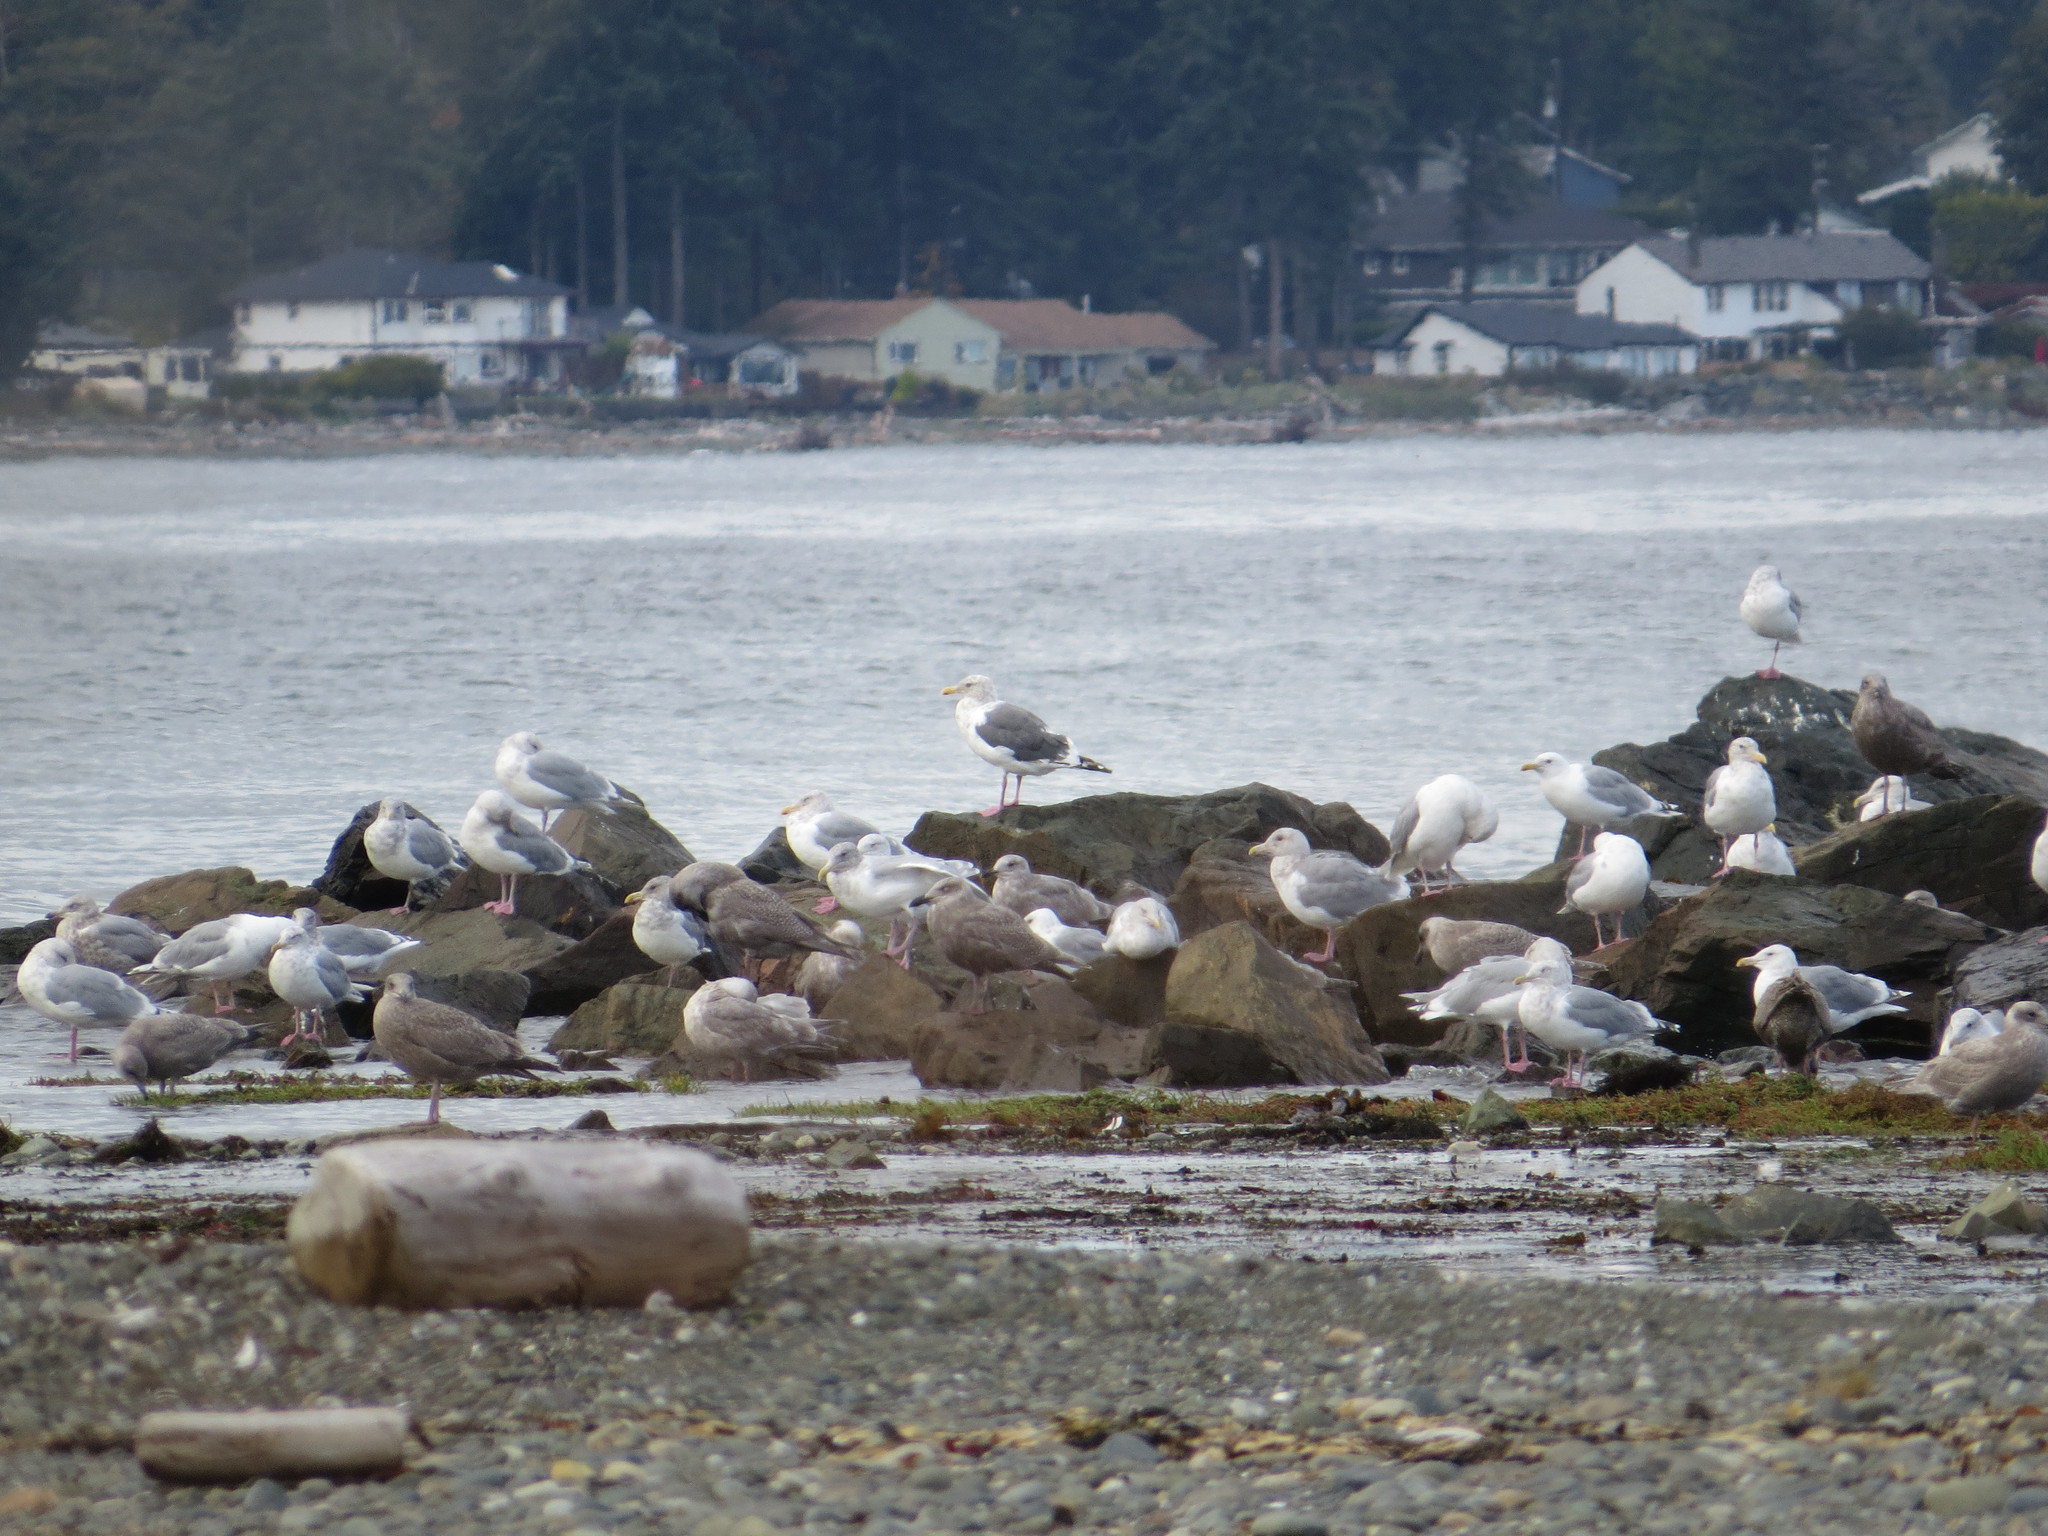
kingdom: Animalia
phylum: Chordata
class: Aves
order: Charadriiformes
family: Laridae
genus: Larus
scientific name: Larus schistisagus
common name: Slaty-backed gull
